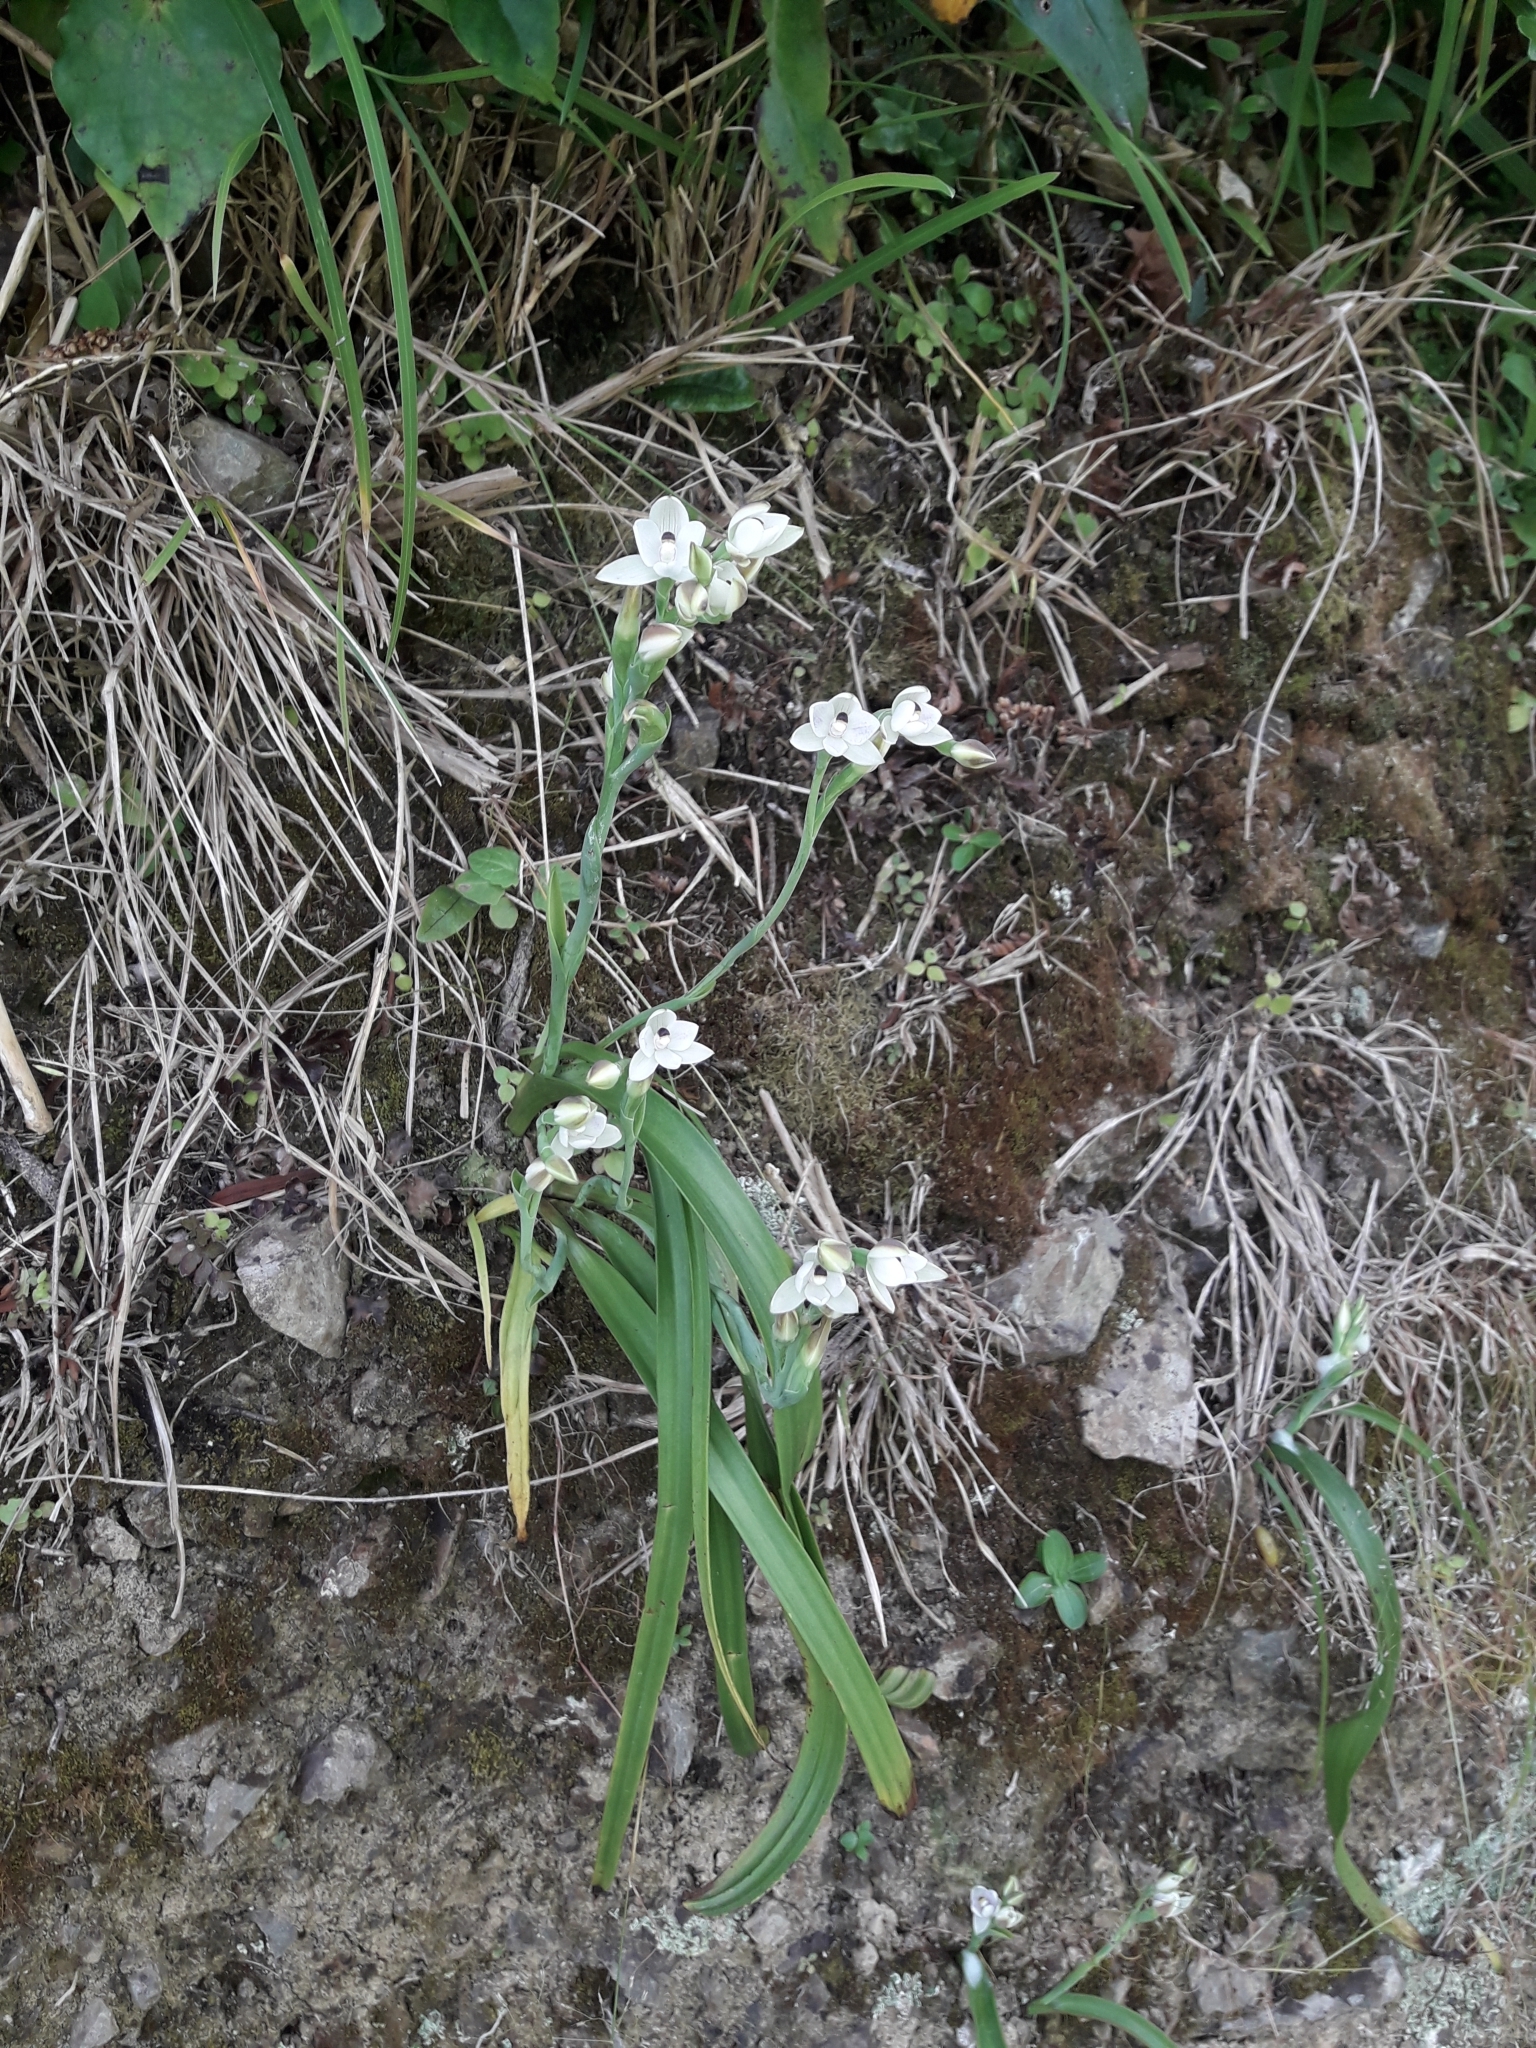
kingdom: Plantae
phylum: Tracheophyta
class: Liliopsida
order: Asparagales
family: Orchidaceae
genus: Thelymitra
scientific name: Thelymitra longifolia
